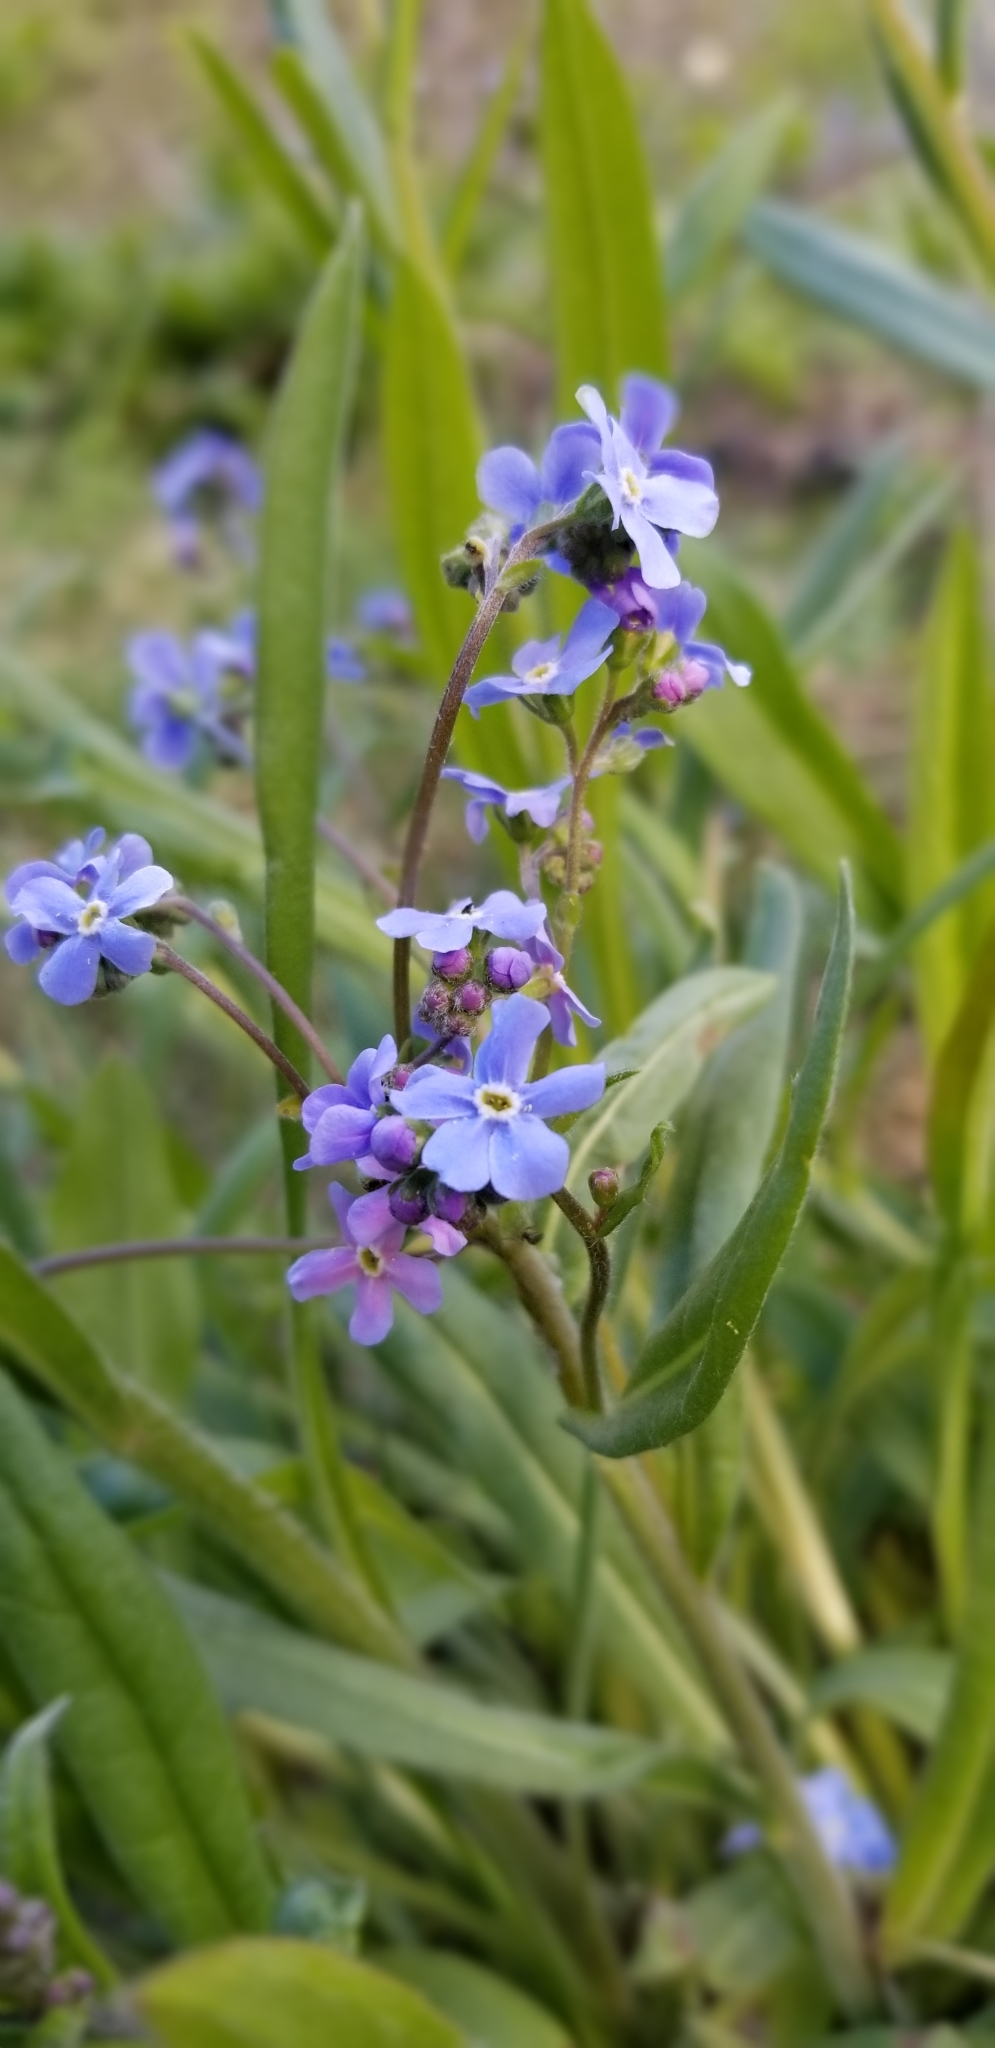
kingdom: Plantae
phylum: Tracheophyta
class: Magnoliopsida
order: Boraginales
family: Boraginaceae
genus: Hackelia
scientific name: Hackelia micrantha
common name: Meadow stickseed
